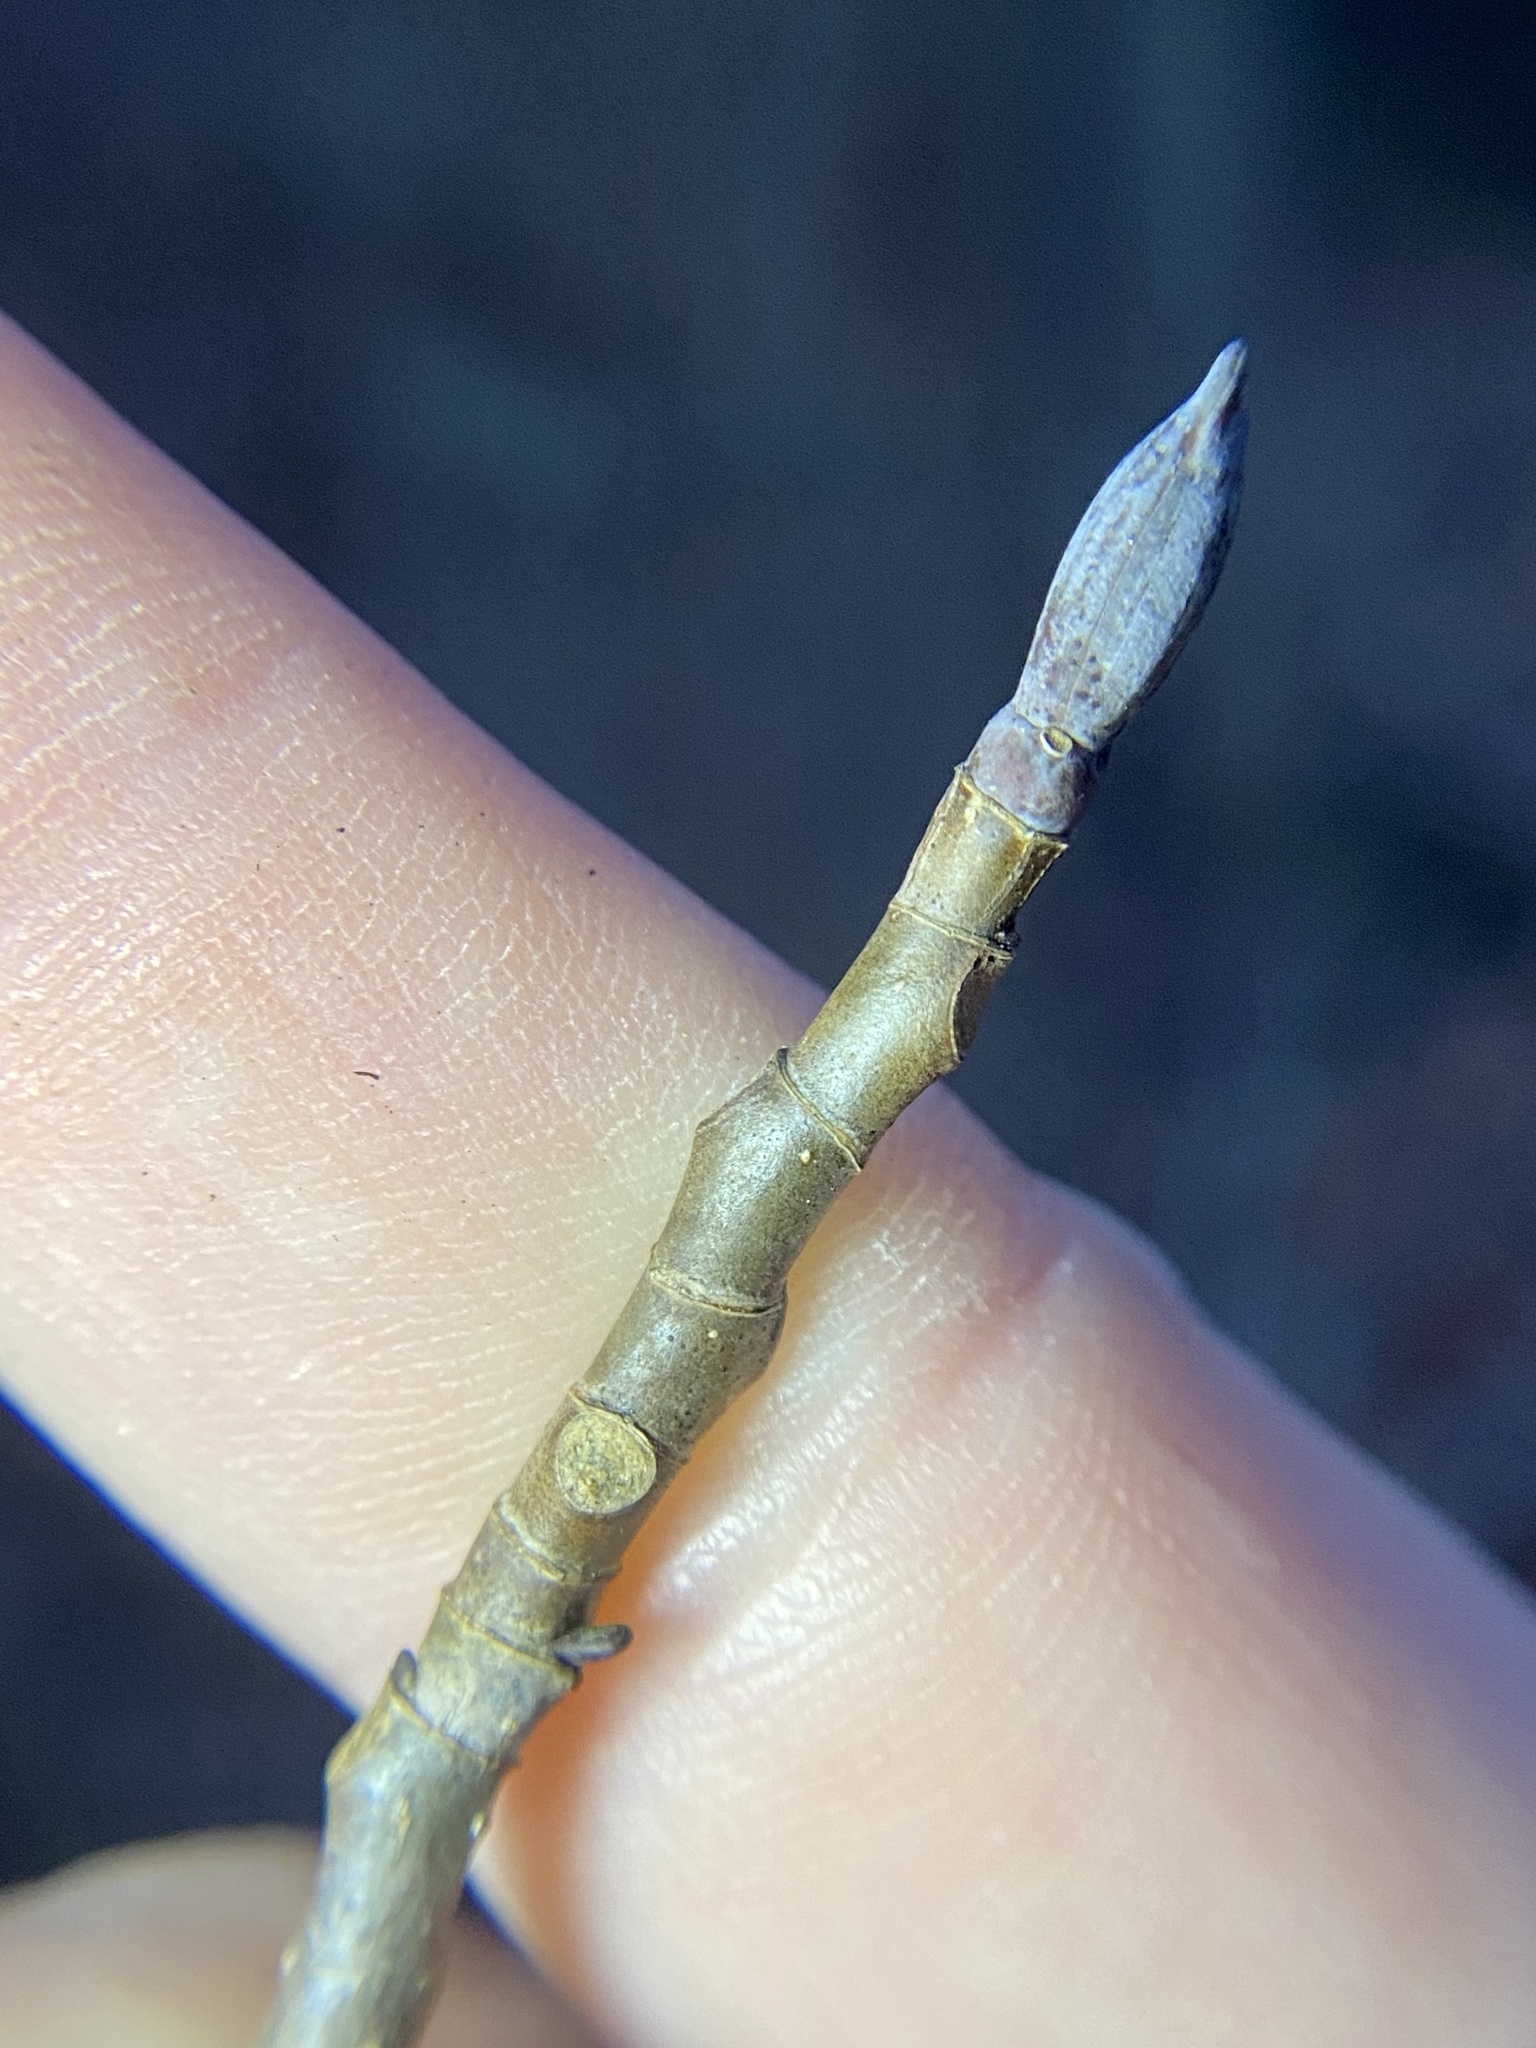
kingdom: Plantae
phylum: Tracheophyta
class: Magnoliopsida
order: Magnoliales
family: Magnoliaceae
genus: Liriodendron
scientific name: Liriodendron tulipifera
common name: Tulip tree
